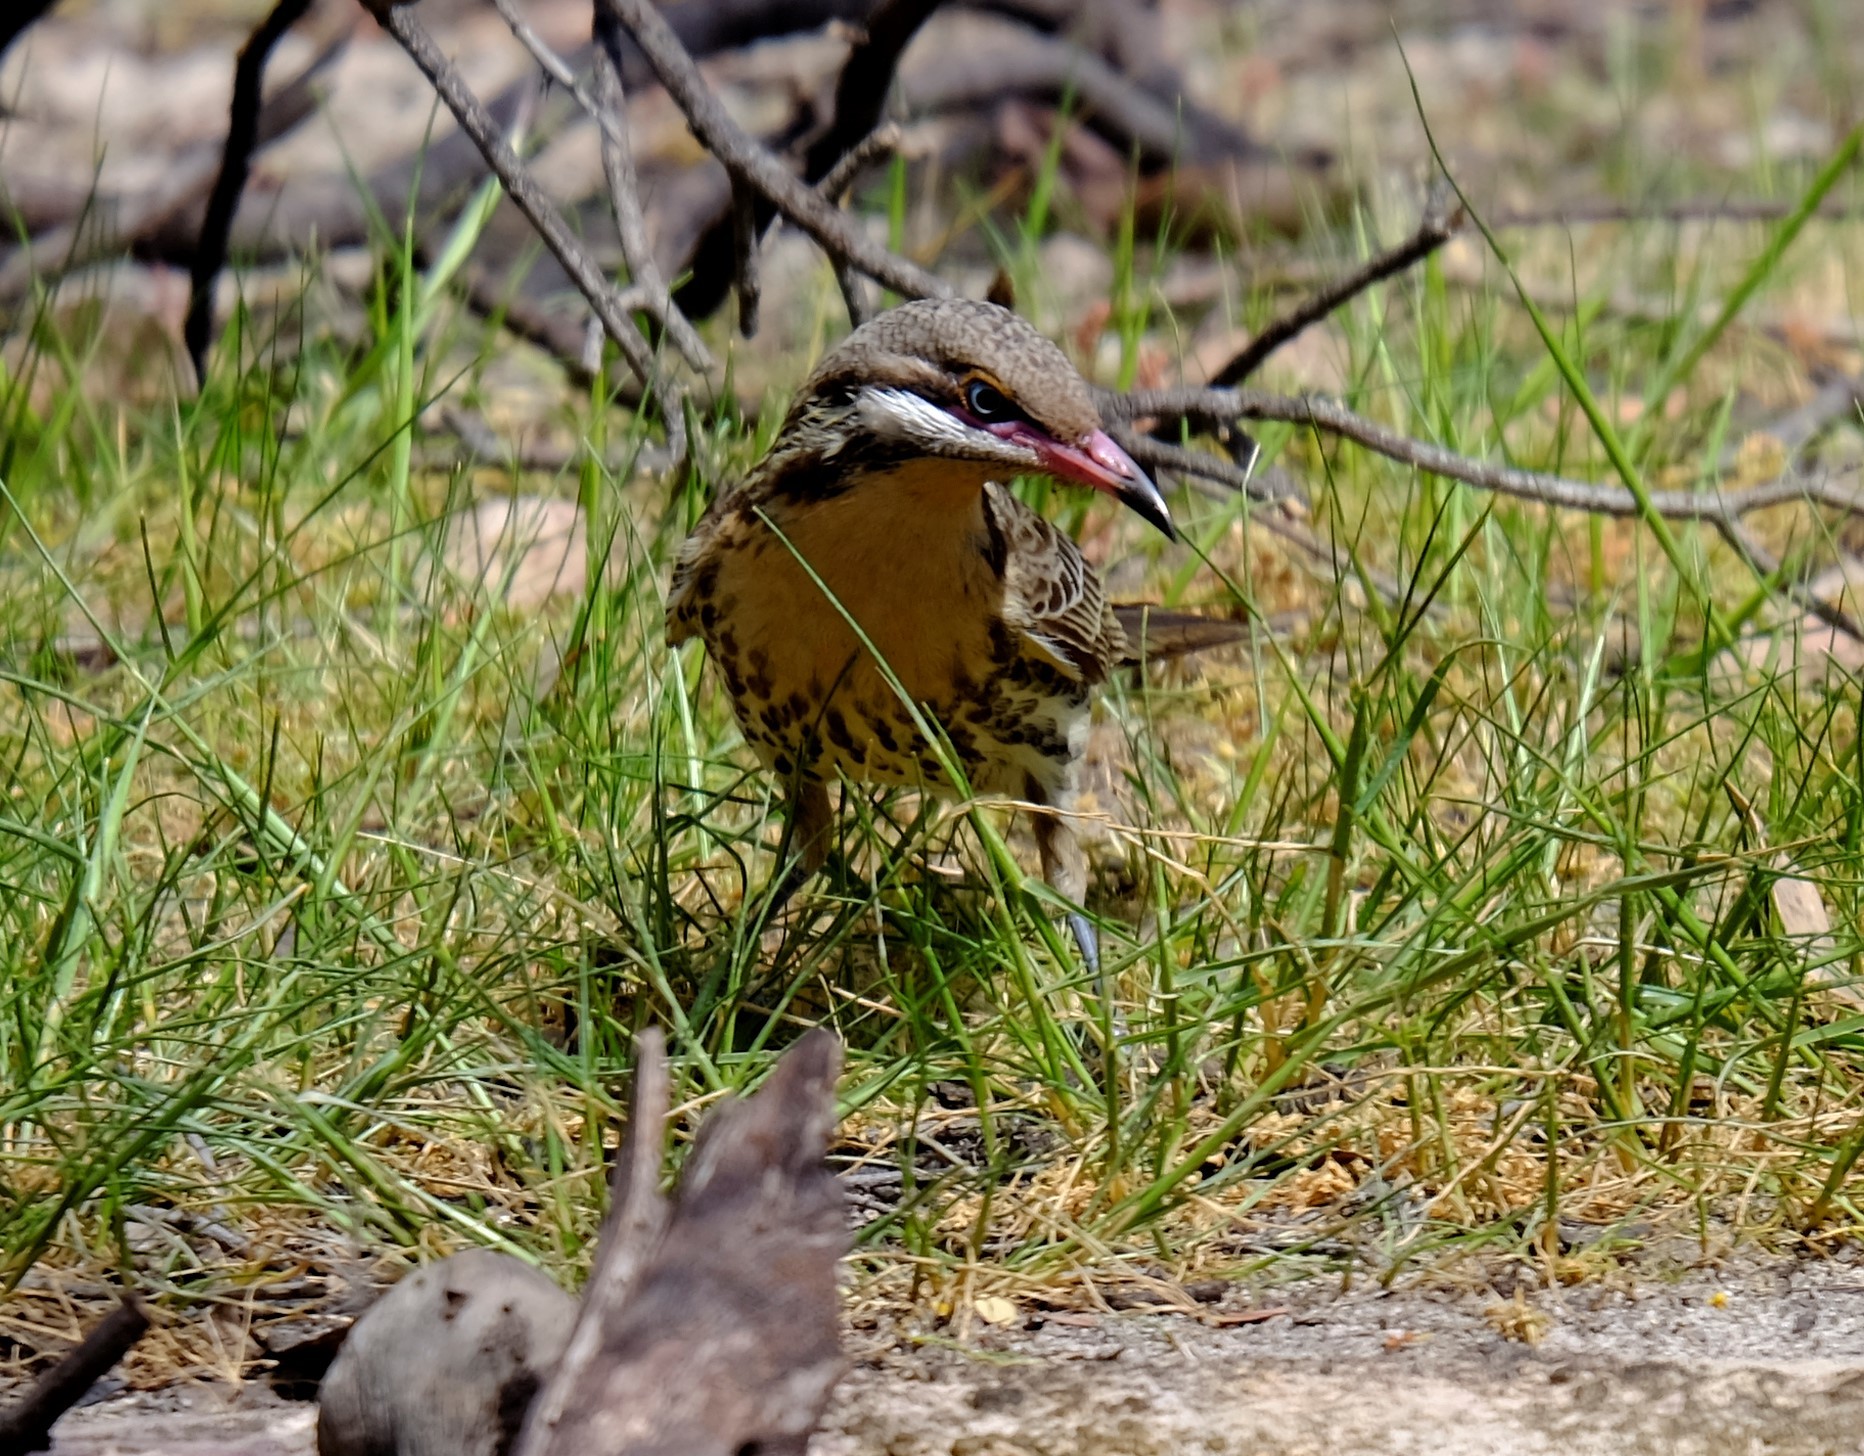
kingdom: Animalia
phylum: Chordata
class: Aves
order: Passeriformes
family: Meliphagidae
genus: Acanthagenys
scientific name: Acanthagenys rufogularis
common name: Spiny-cheeked honeyeater
